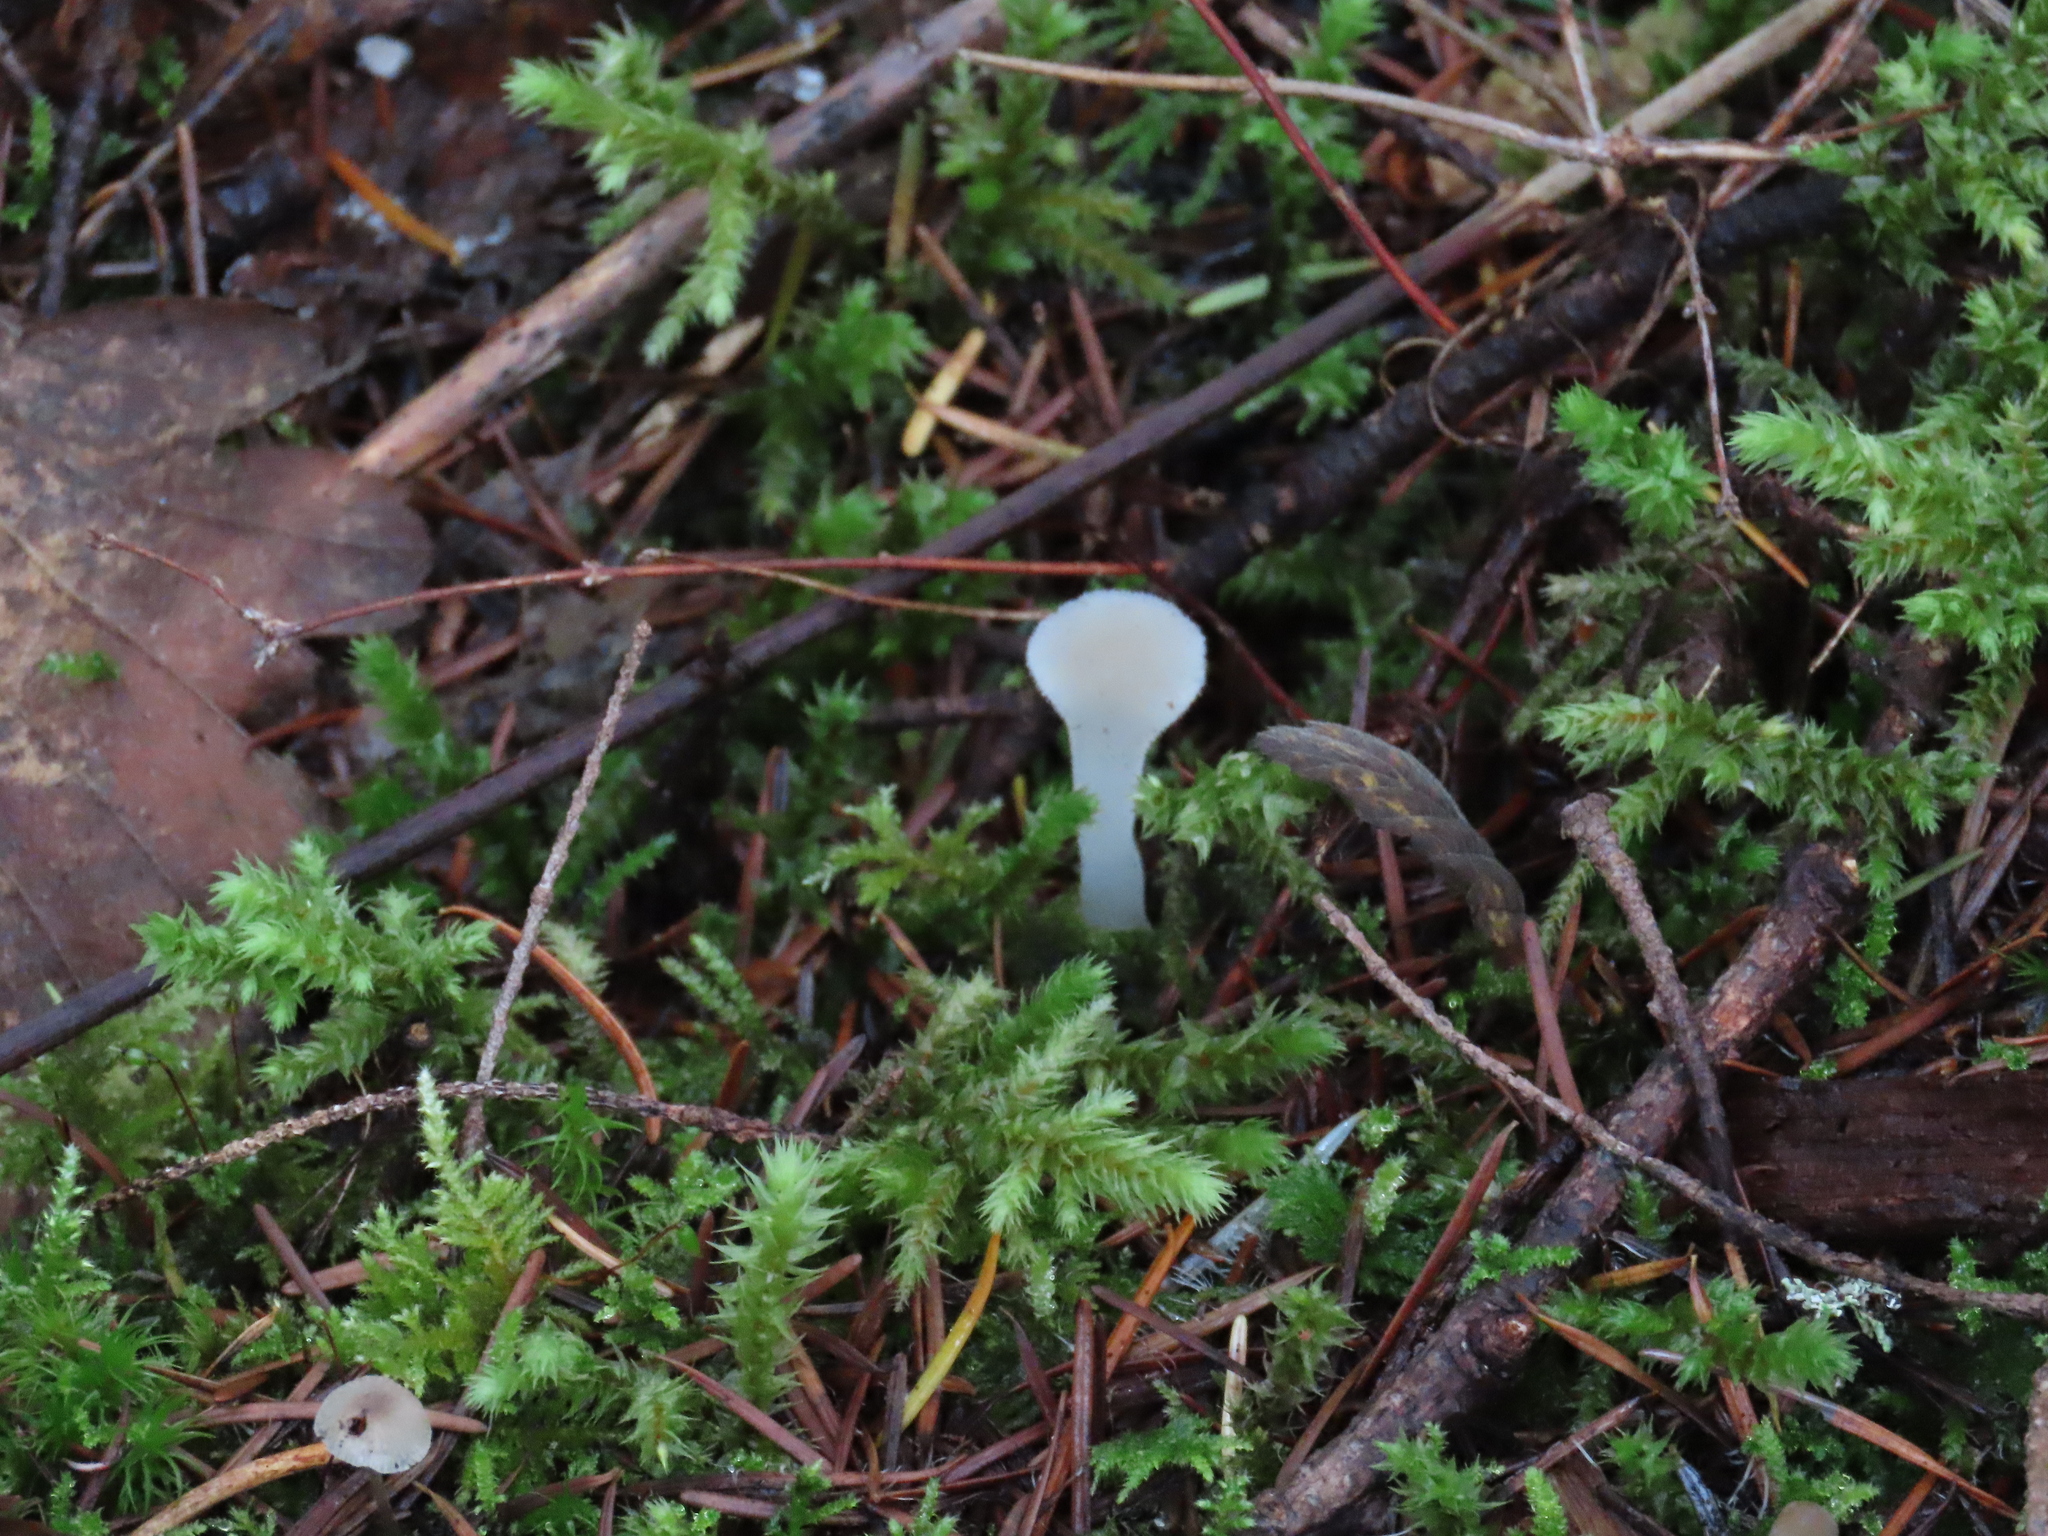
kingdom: Fungi
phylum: Basidiomycota
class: Agaricomycetes
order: Auriculariales
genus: Pseudohydnum
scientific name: Pseudohydnum gelatinosum
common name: Jelly tongue
